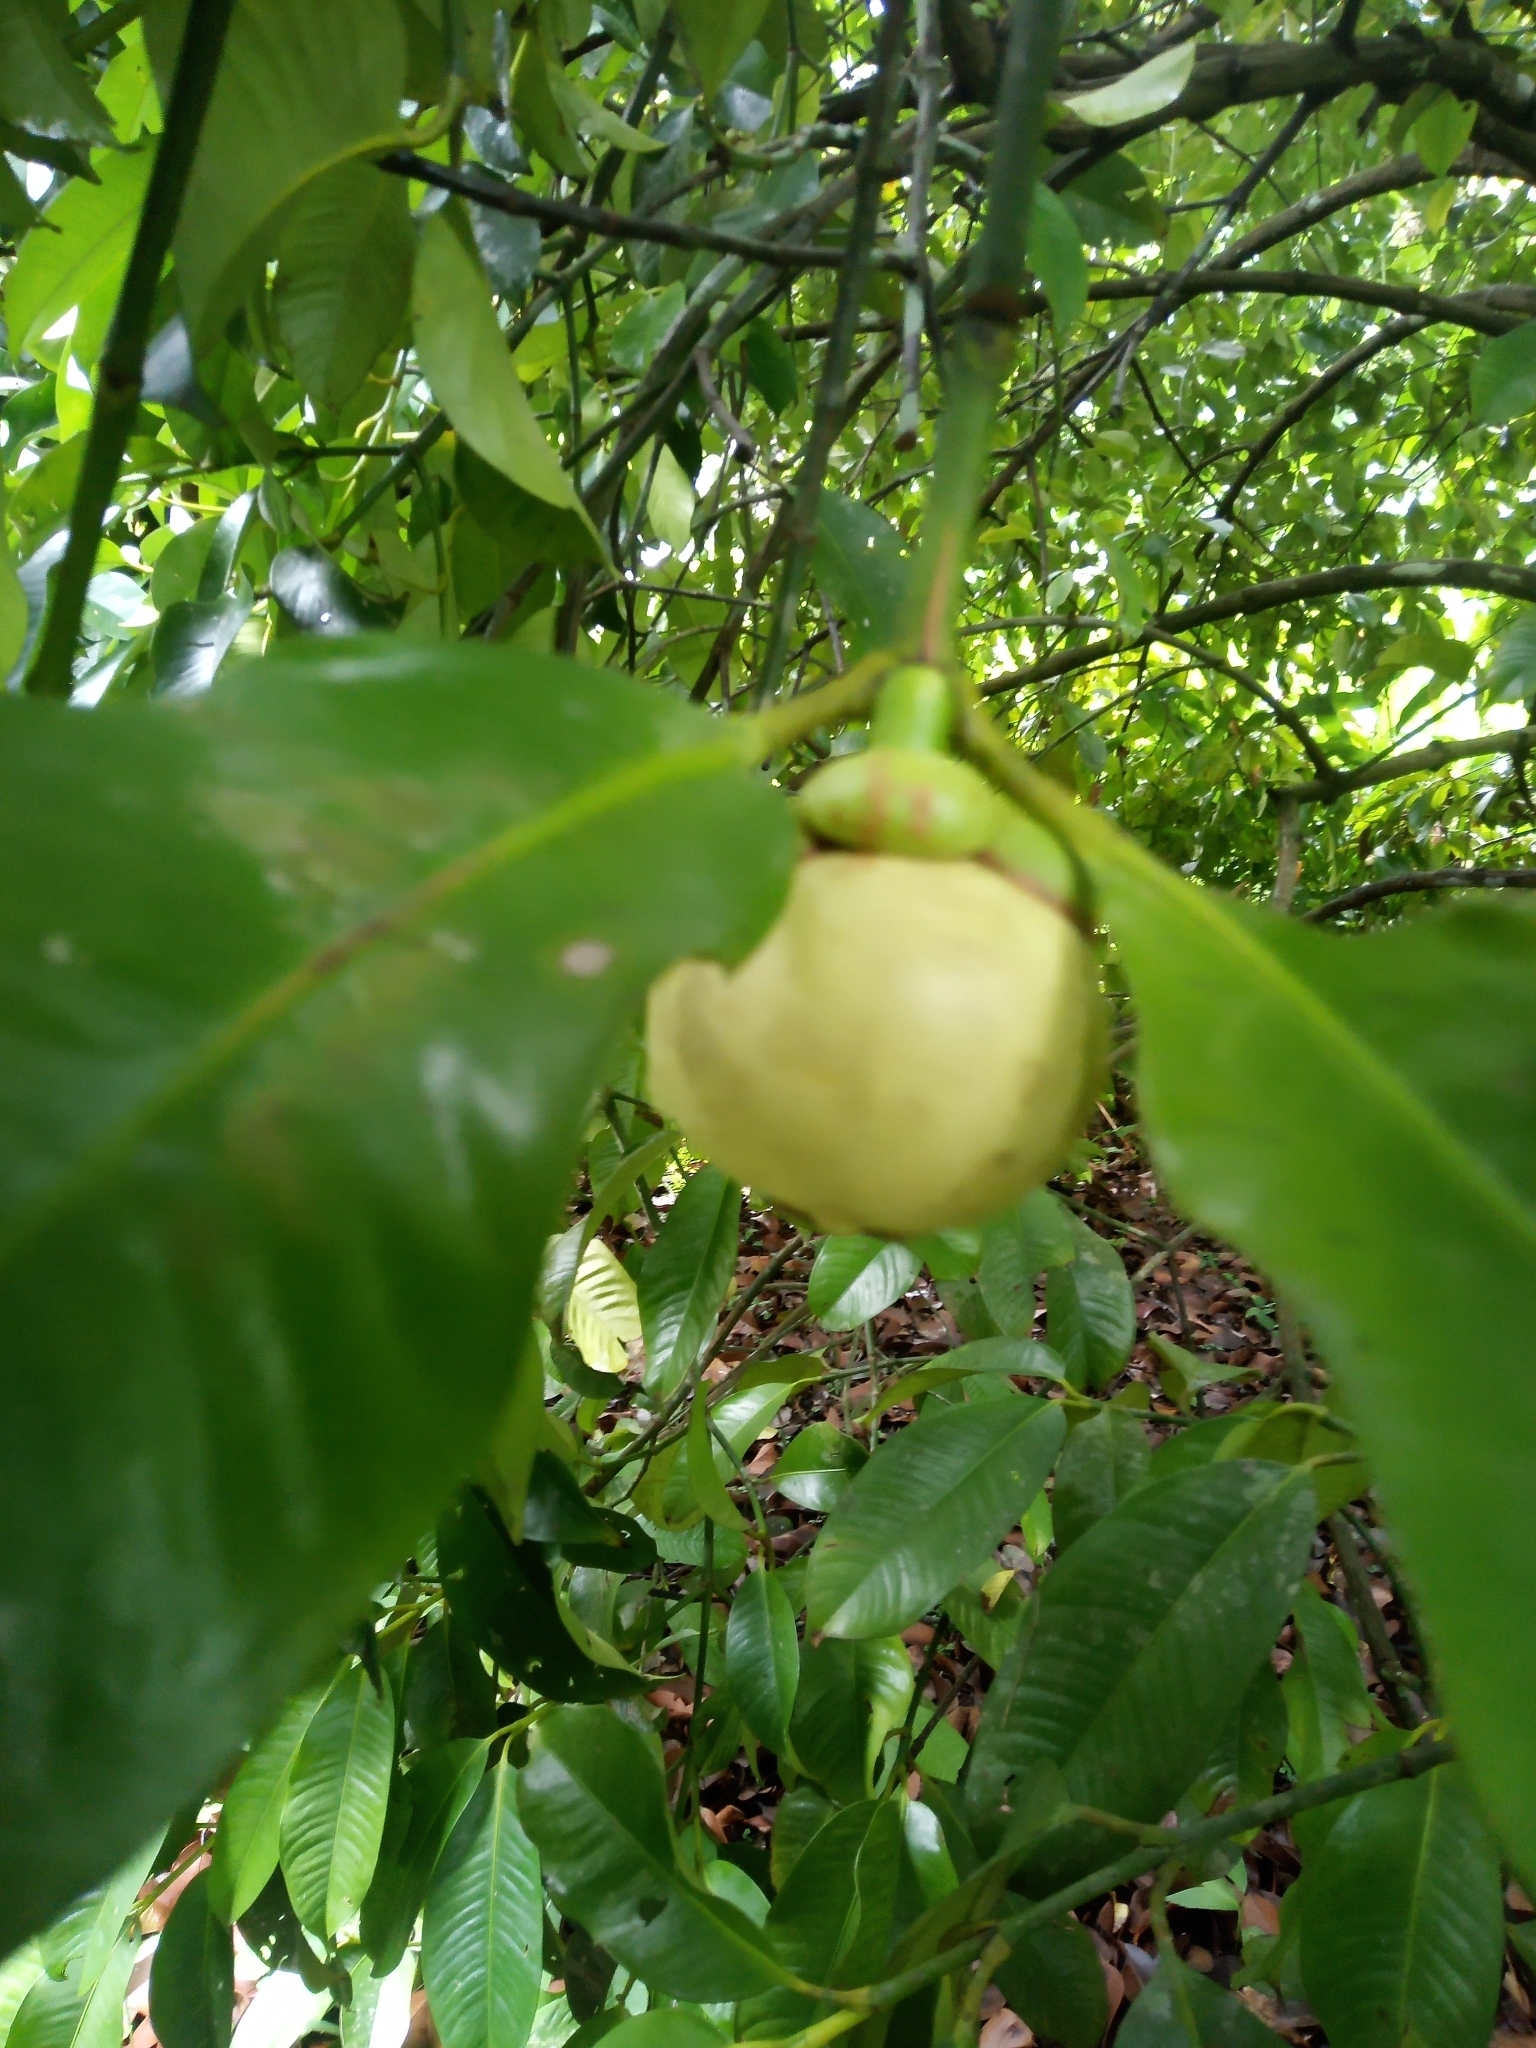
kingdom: Plantae
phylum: Tracheophyta
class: Magnoliopsida
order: Malpighiales
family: Clusiaceae
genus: Garcinia
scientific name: Garcinia mangostana
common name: Mangosteen
